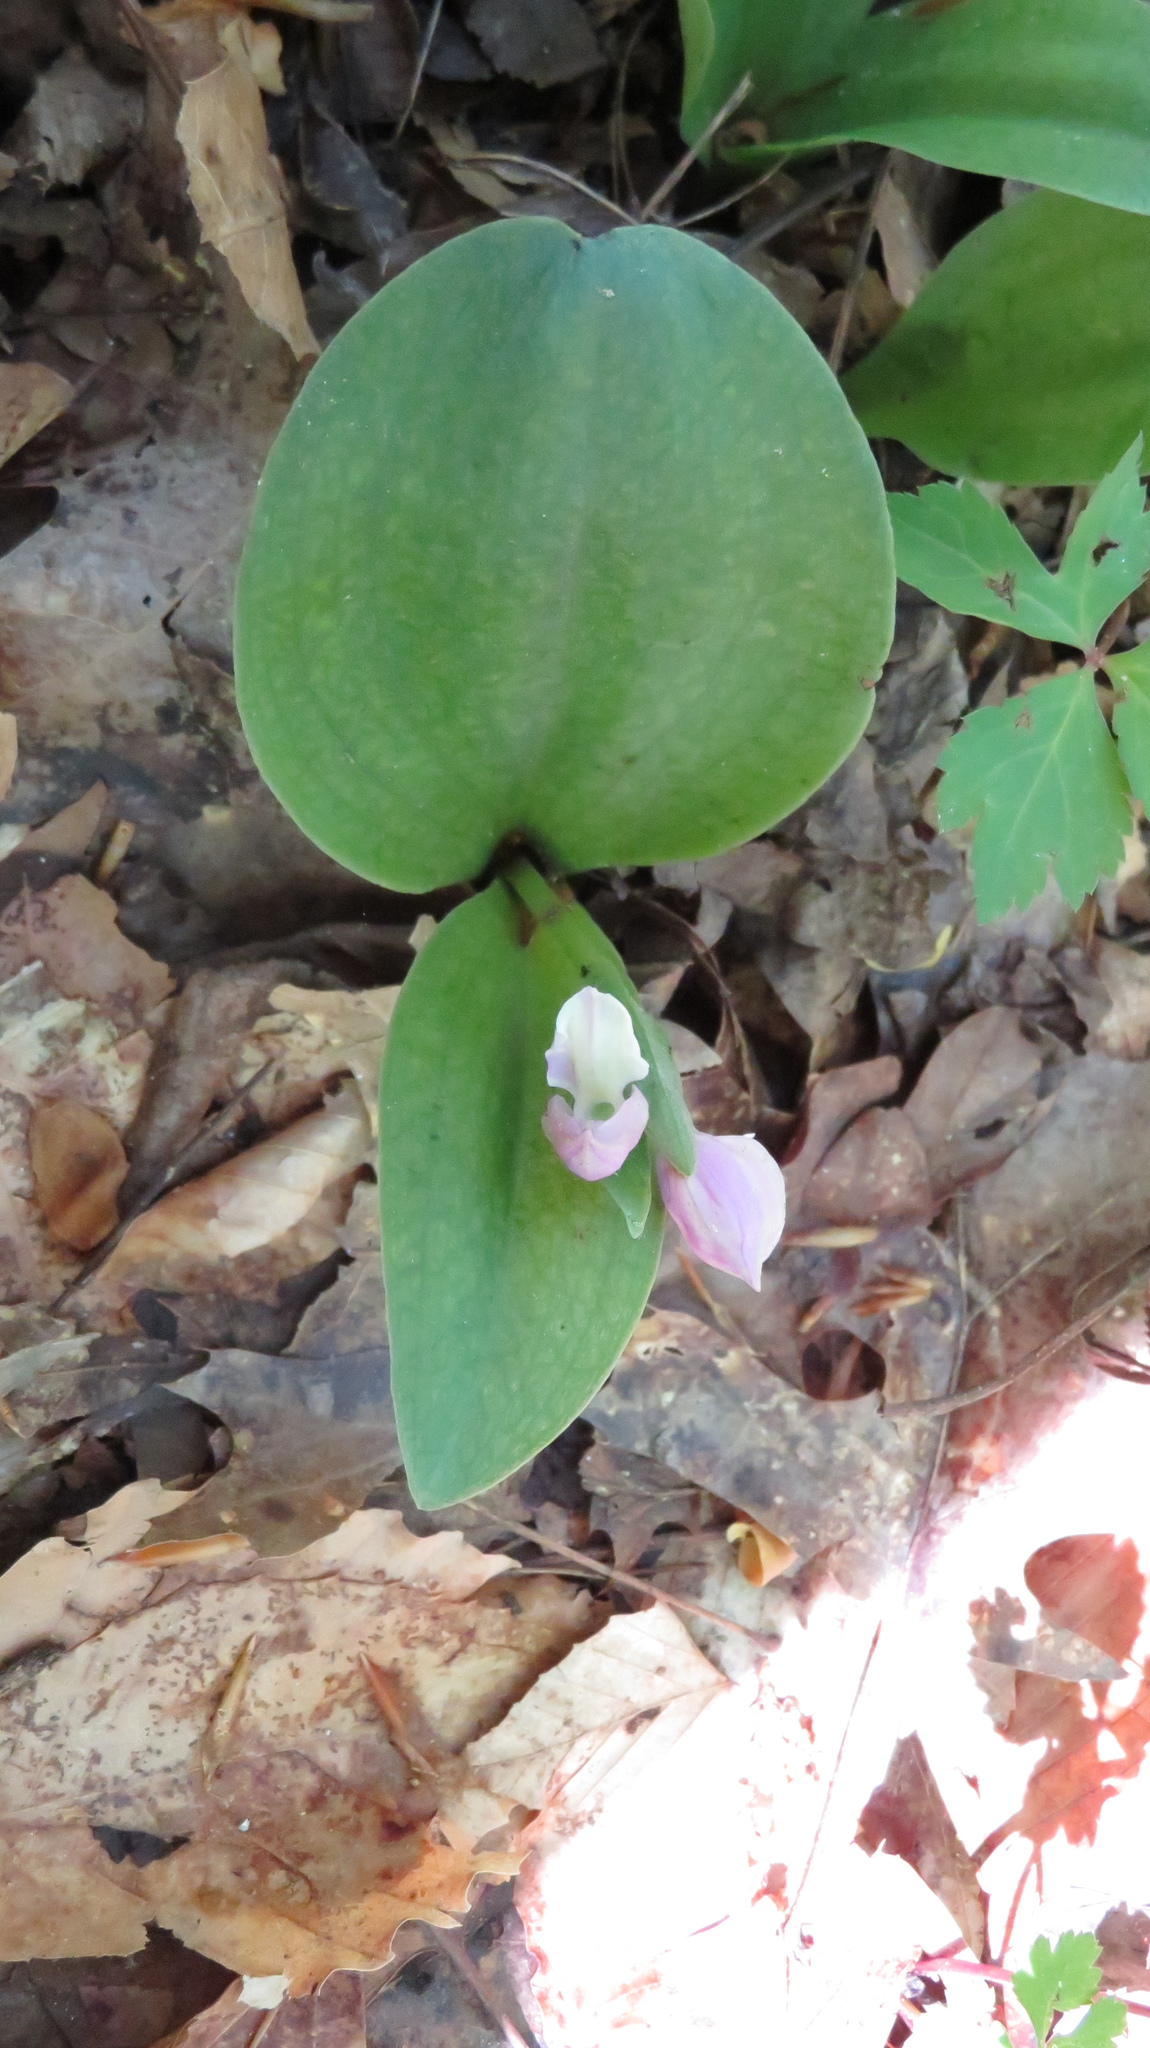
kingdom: Plantae
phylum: Tracheophyta
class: Liliopsida
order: Asparagales
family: Orchidaceae
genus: Galearis
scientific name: Galearis spectabilis
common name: Purple-hooded orchis
